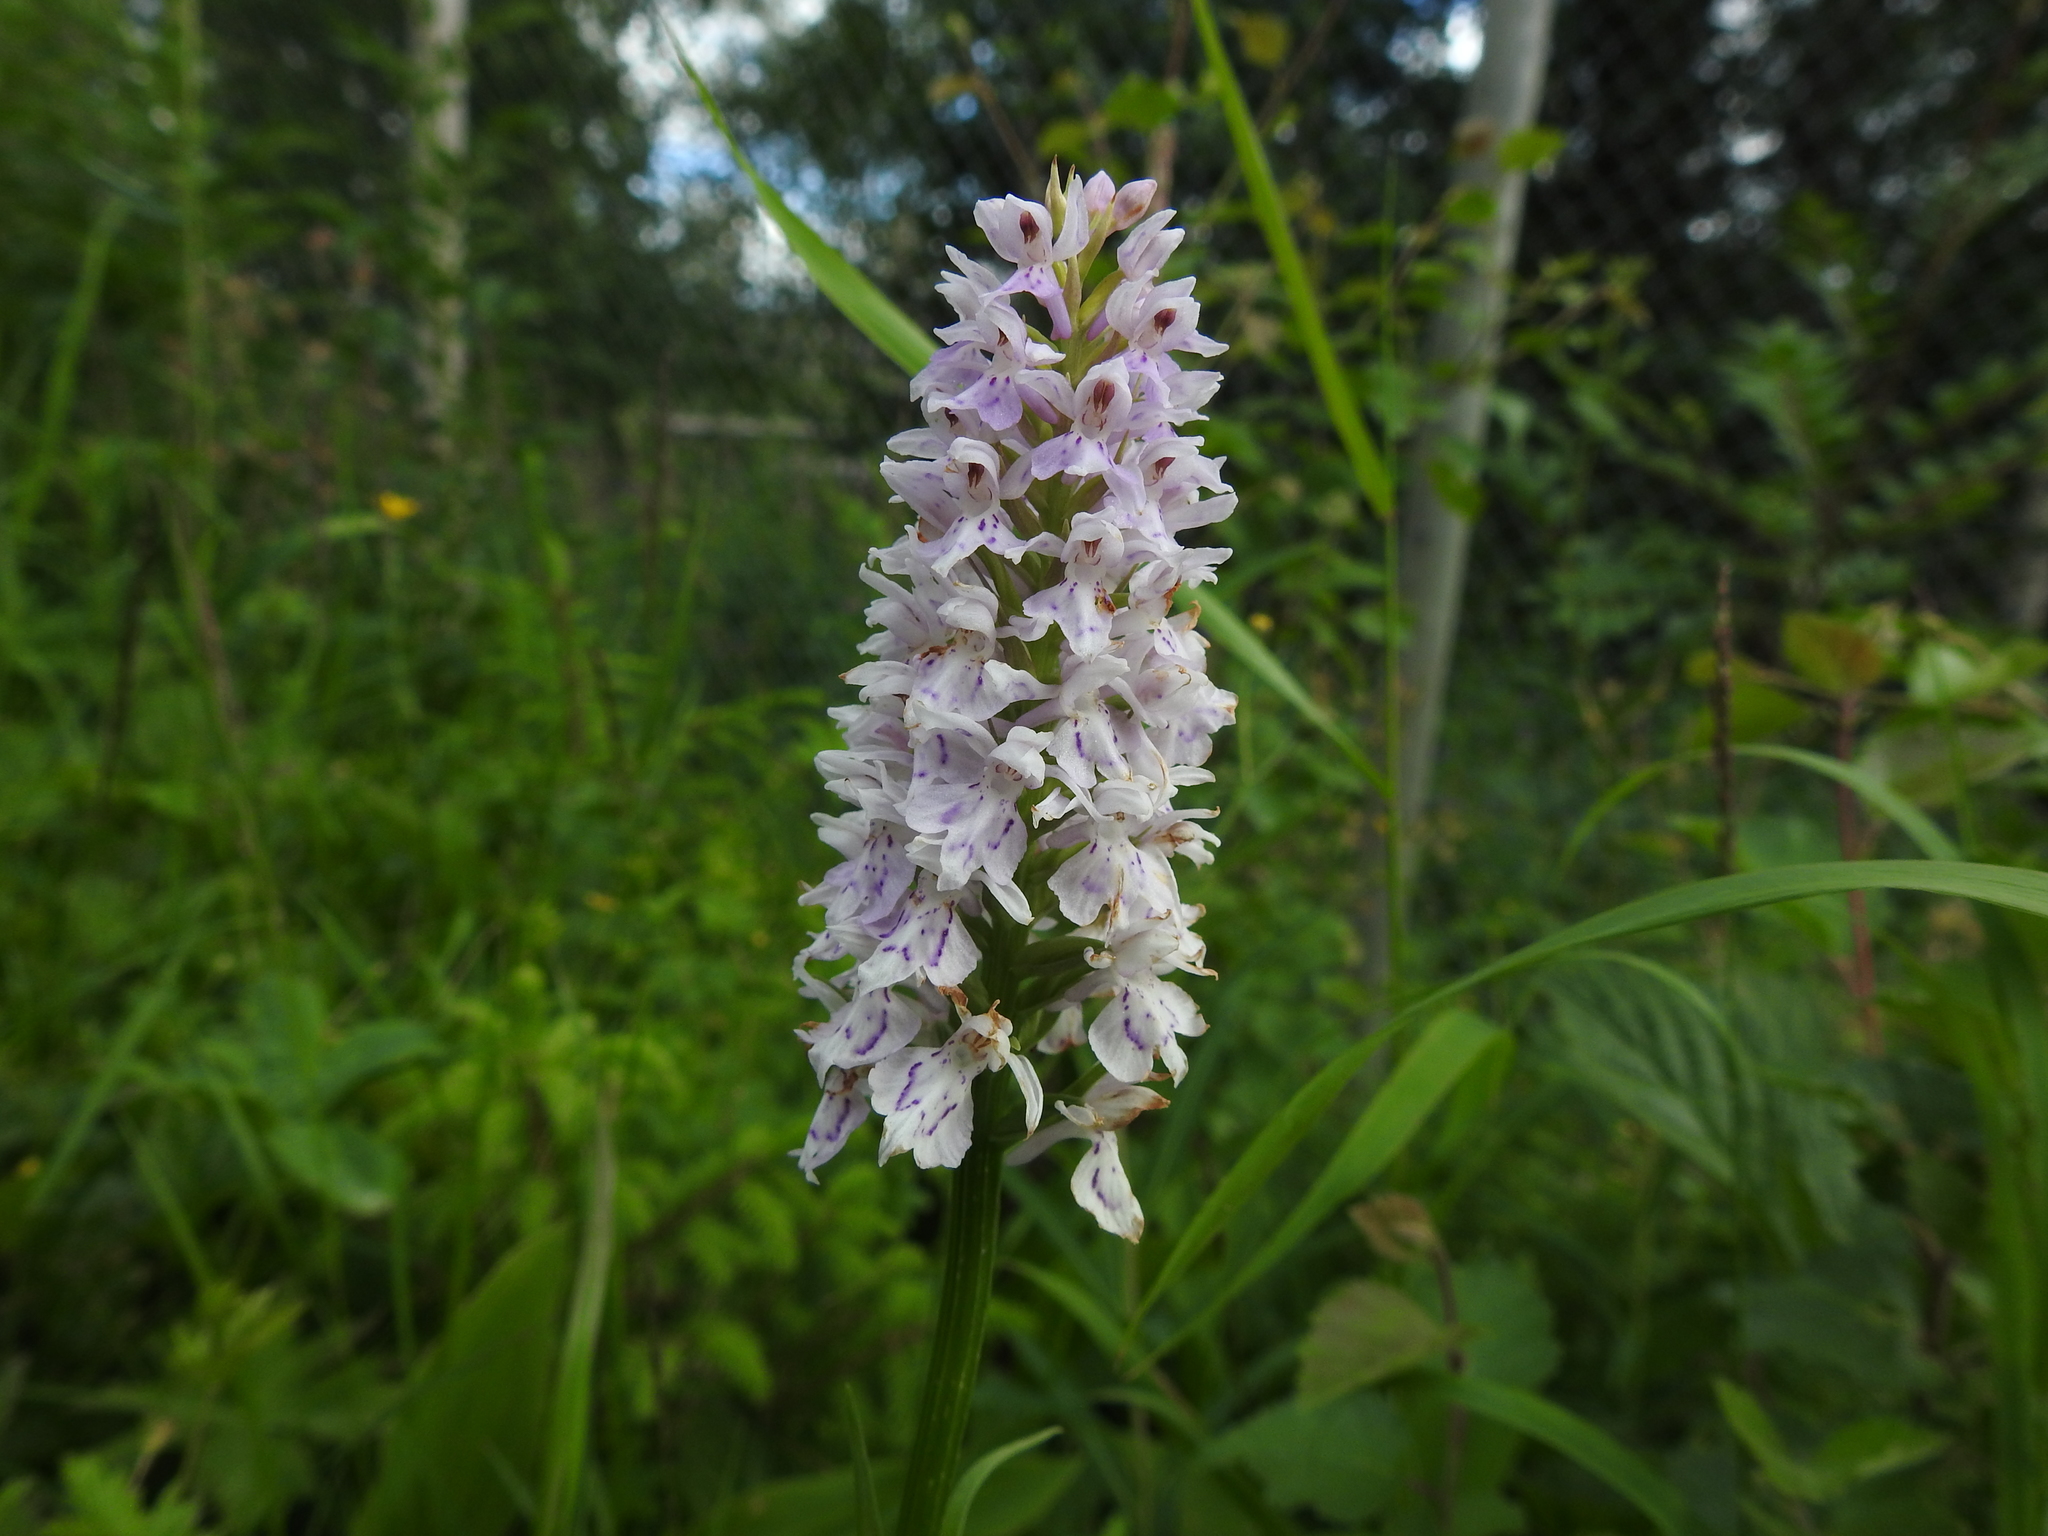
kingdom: Plantae
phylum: Tracheophyta
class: Liliopsida
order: Asparagales
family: Orchidaceae
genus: Dactylorhiza
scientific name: Dactylorhiza maculata
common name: Heath spotted-orchid
